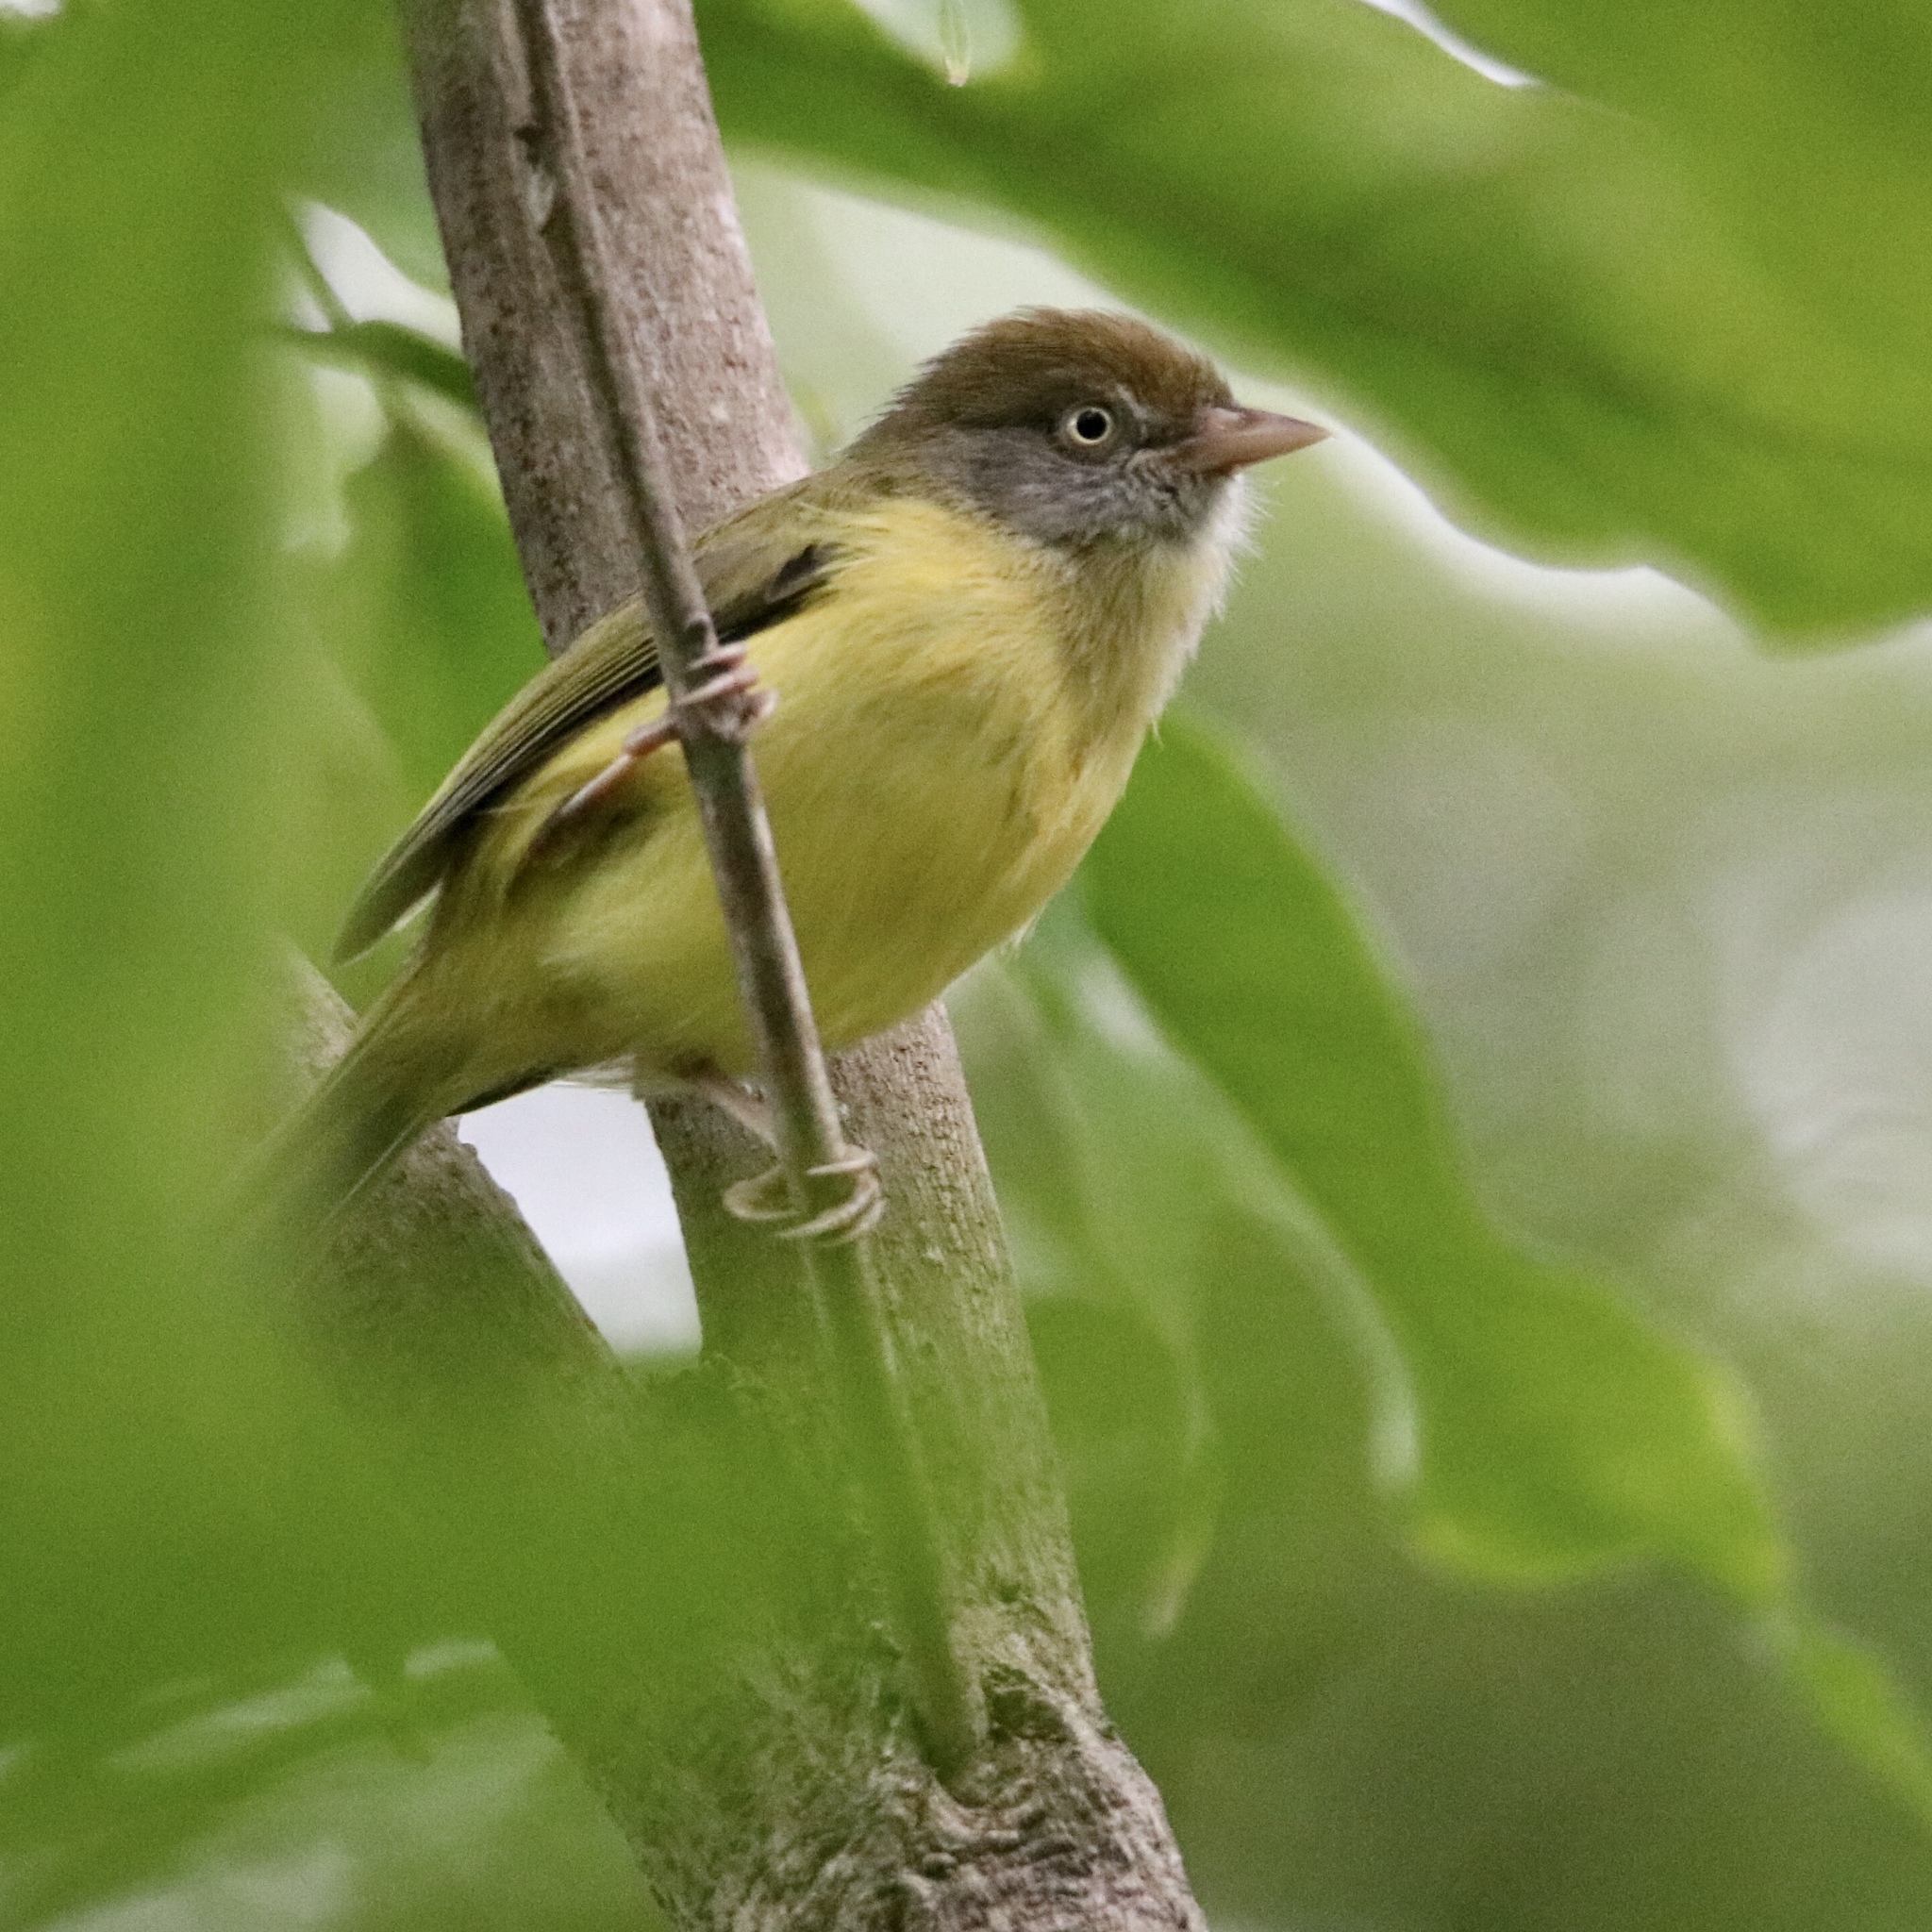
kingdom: Animalia
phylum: Chordata
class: Aves
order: Passeriformes
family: Vireonidae
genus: Hylophilus
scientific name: Hylophilus flavipes
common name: Scrub greenlet
